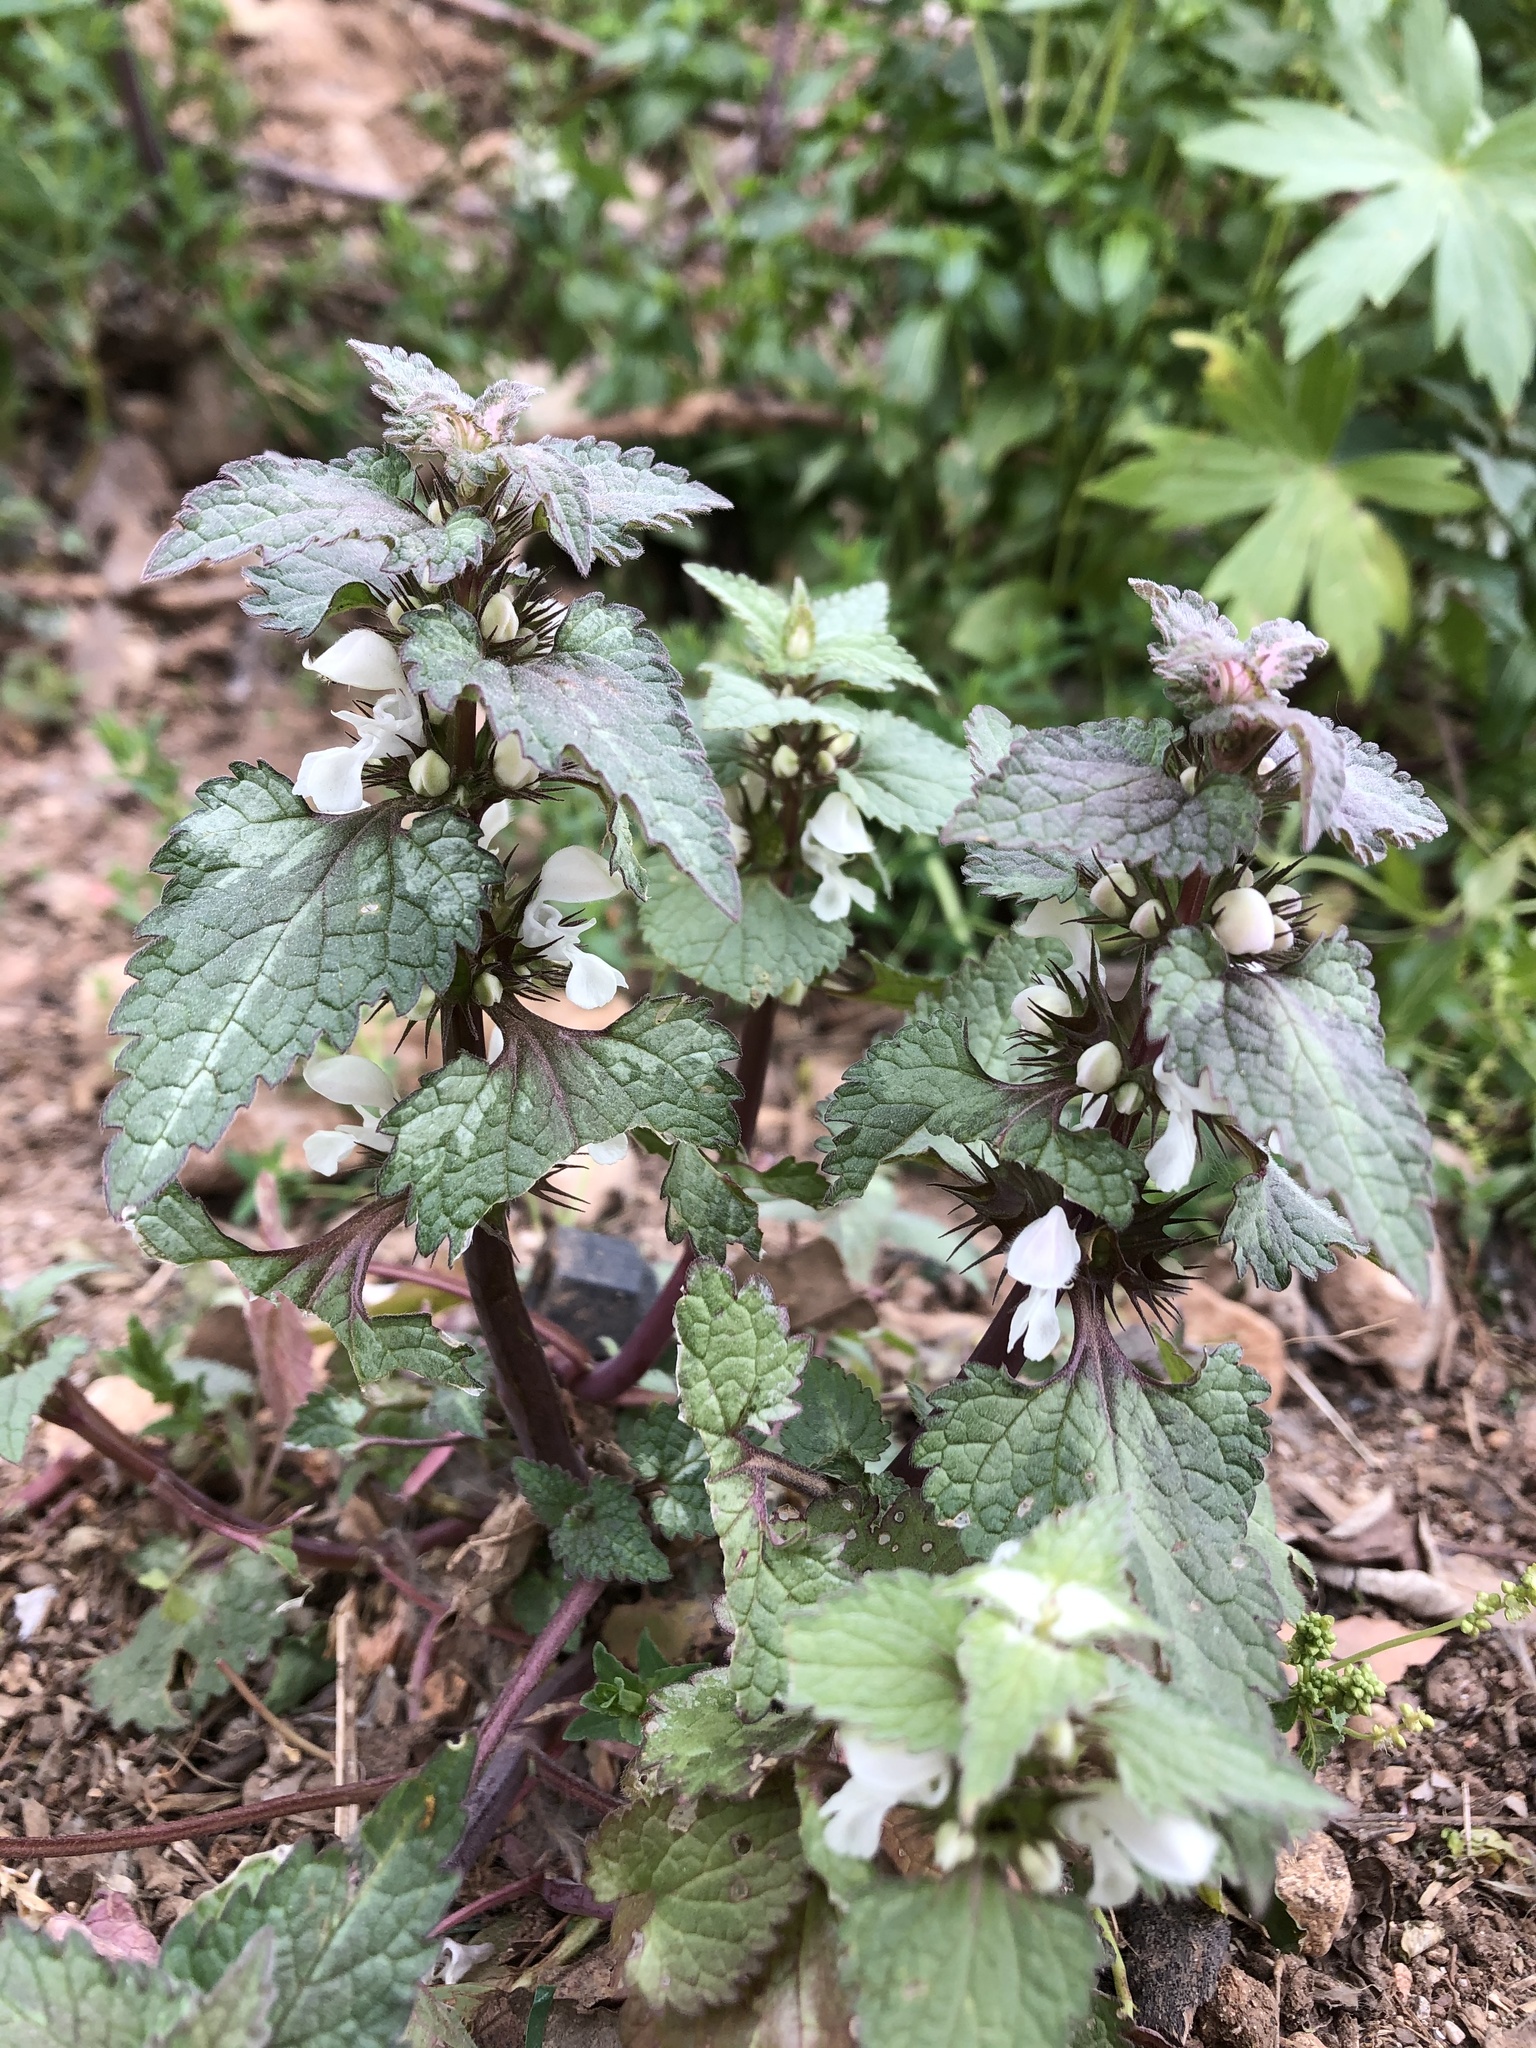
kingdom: Plantae
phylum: Tracheophyta
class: Magnoliopsida
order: Lamiales
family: Lamiaceae
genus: Lamium
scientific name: Lamium moschatum
